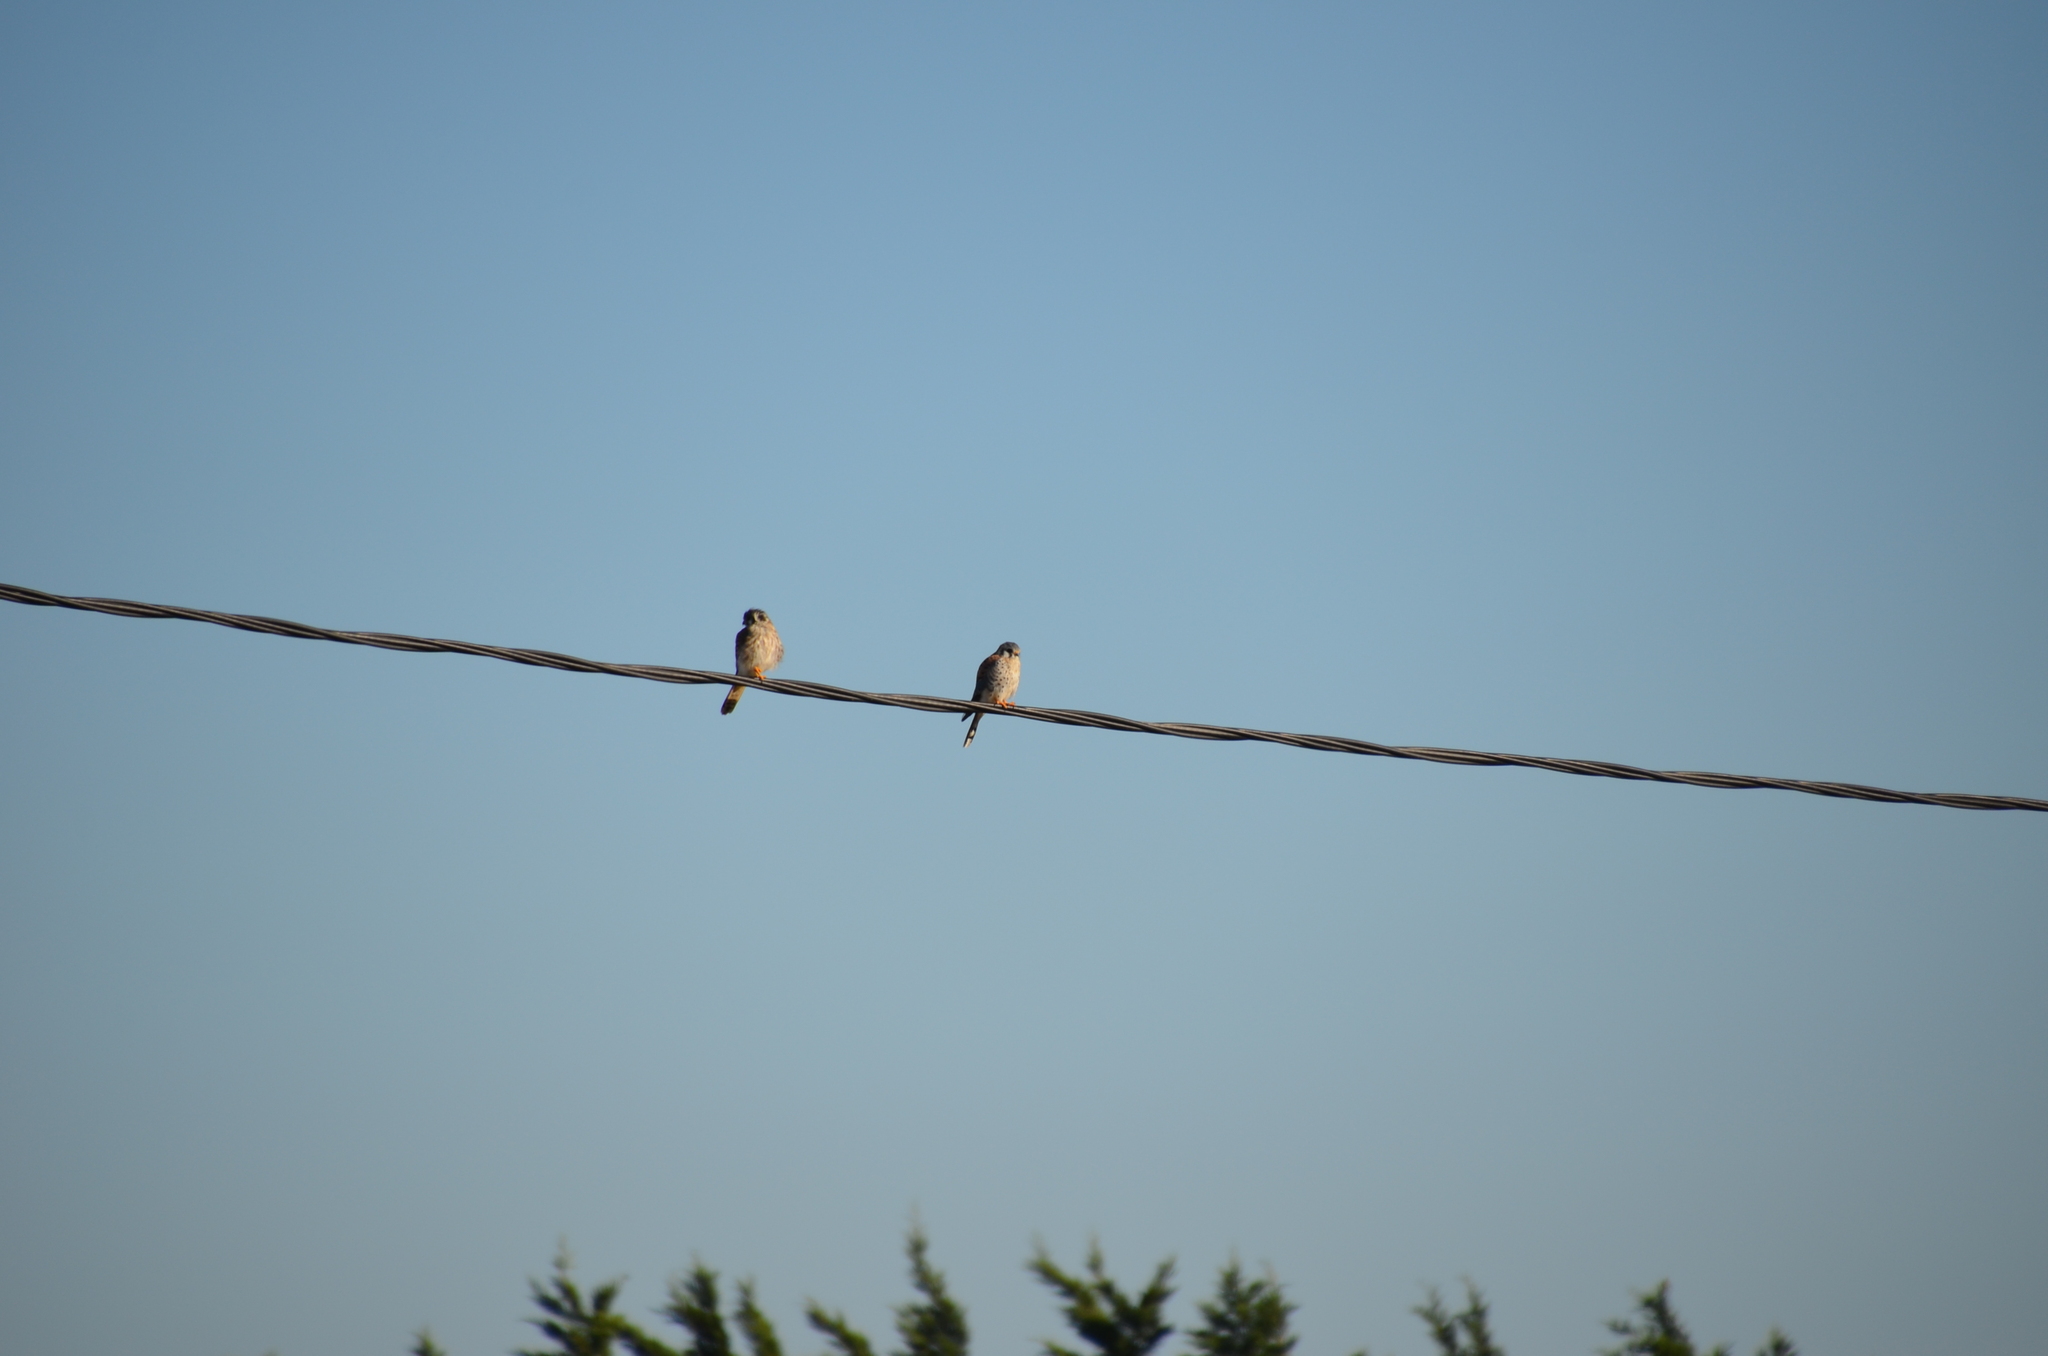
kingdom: Animalia
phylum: Chordata
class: Aves
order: Falconiformes
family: Falconidae
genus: Falco
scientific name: Falco sparverius
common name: American kestrel
